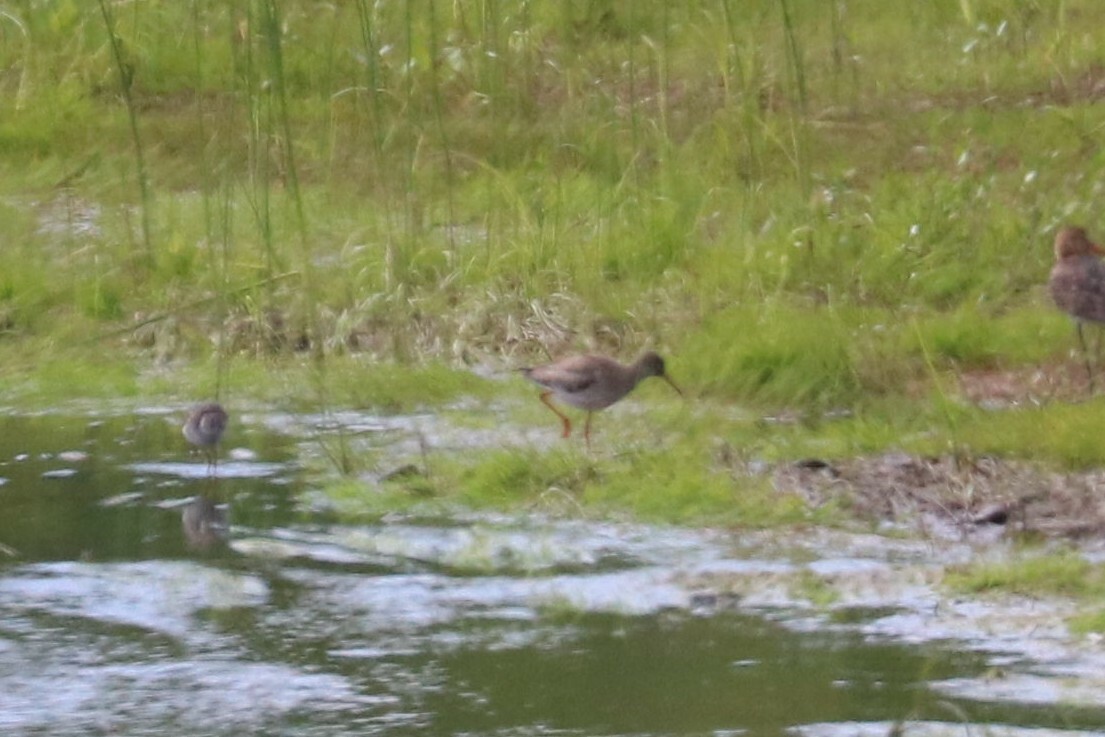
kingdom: Animalia
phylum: Chordata
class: Aves
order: Charadriiformes
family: Scolopacidae
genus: Tringa
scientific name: Tringa totanus
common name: Common redshank
